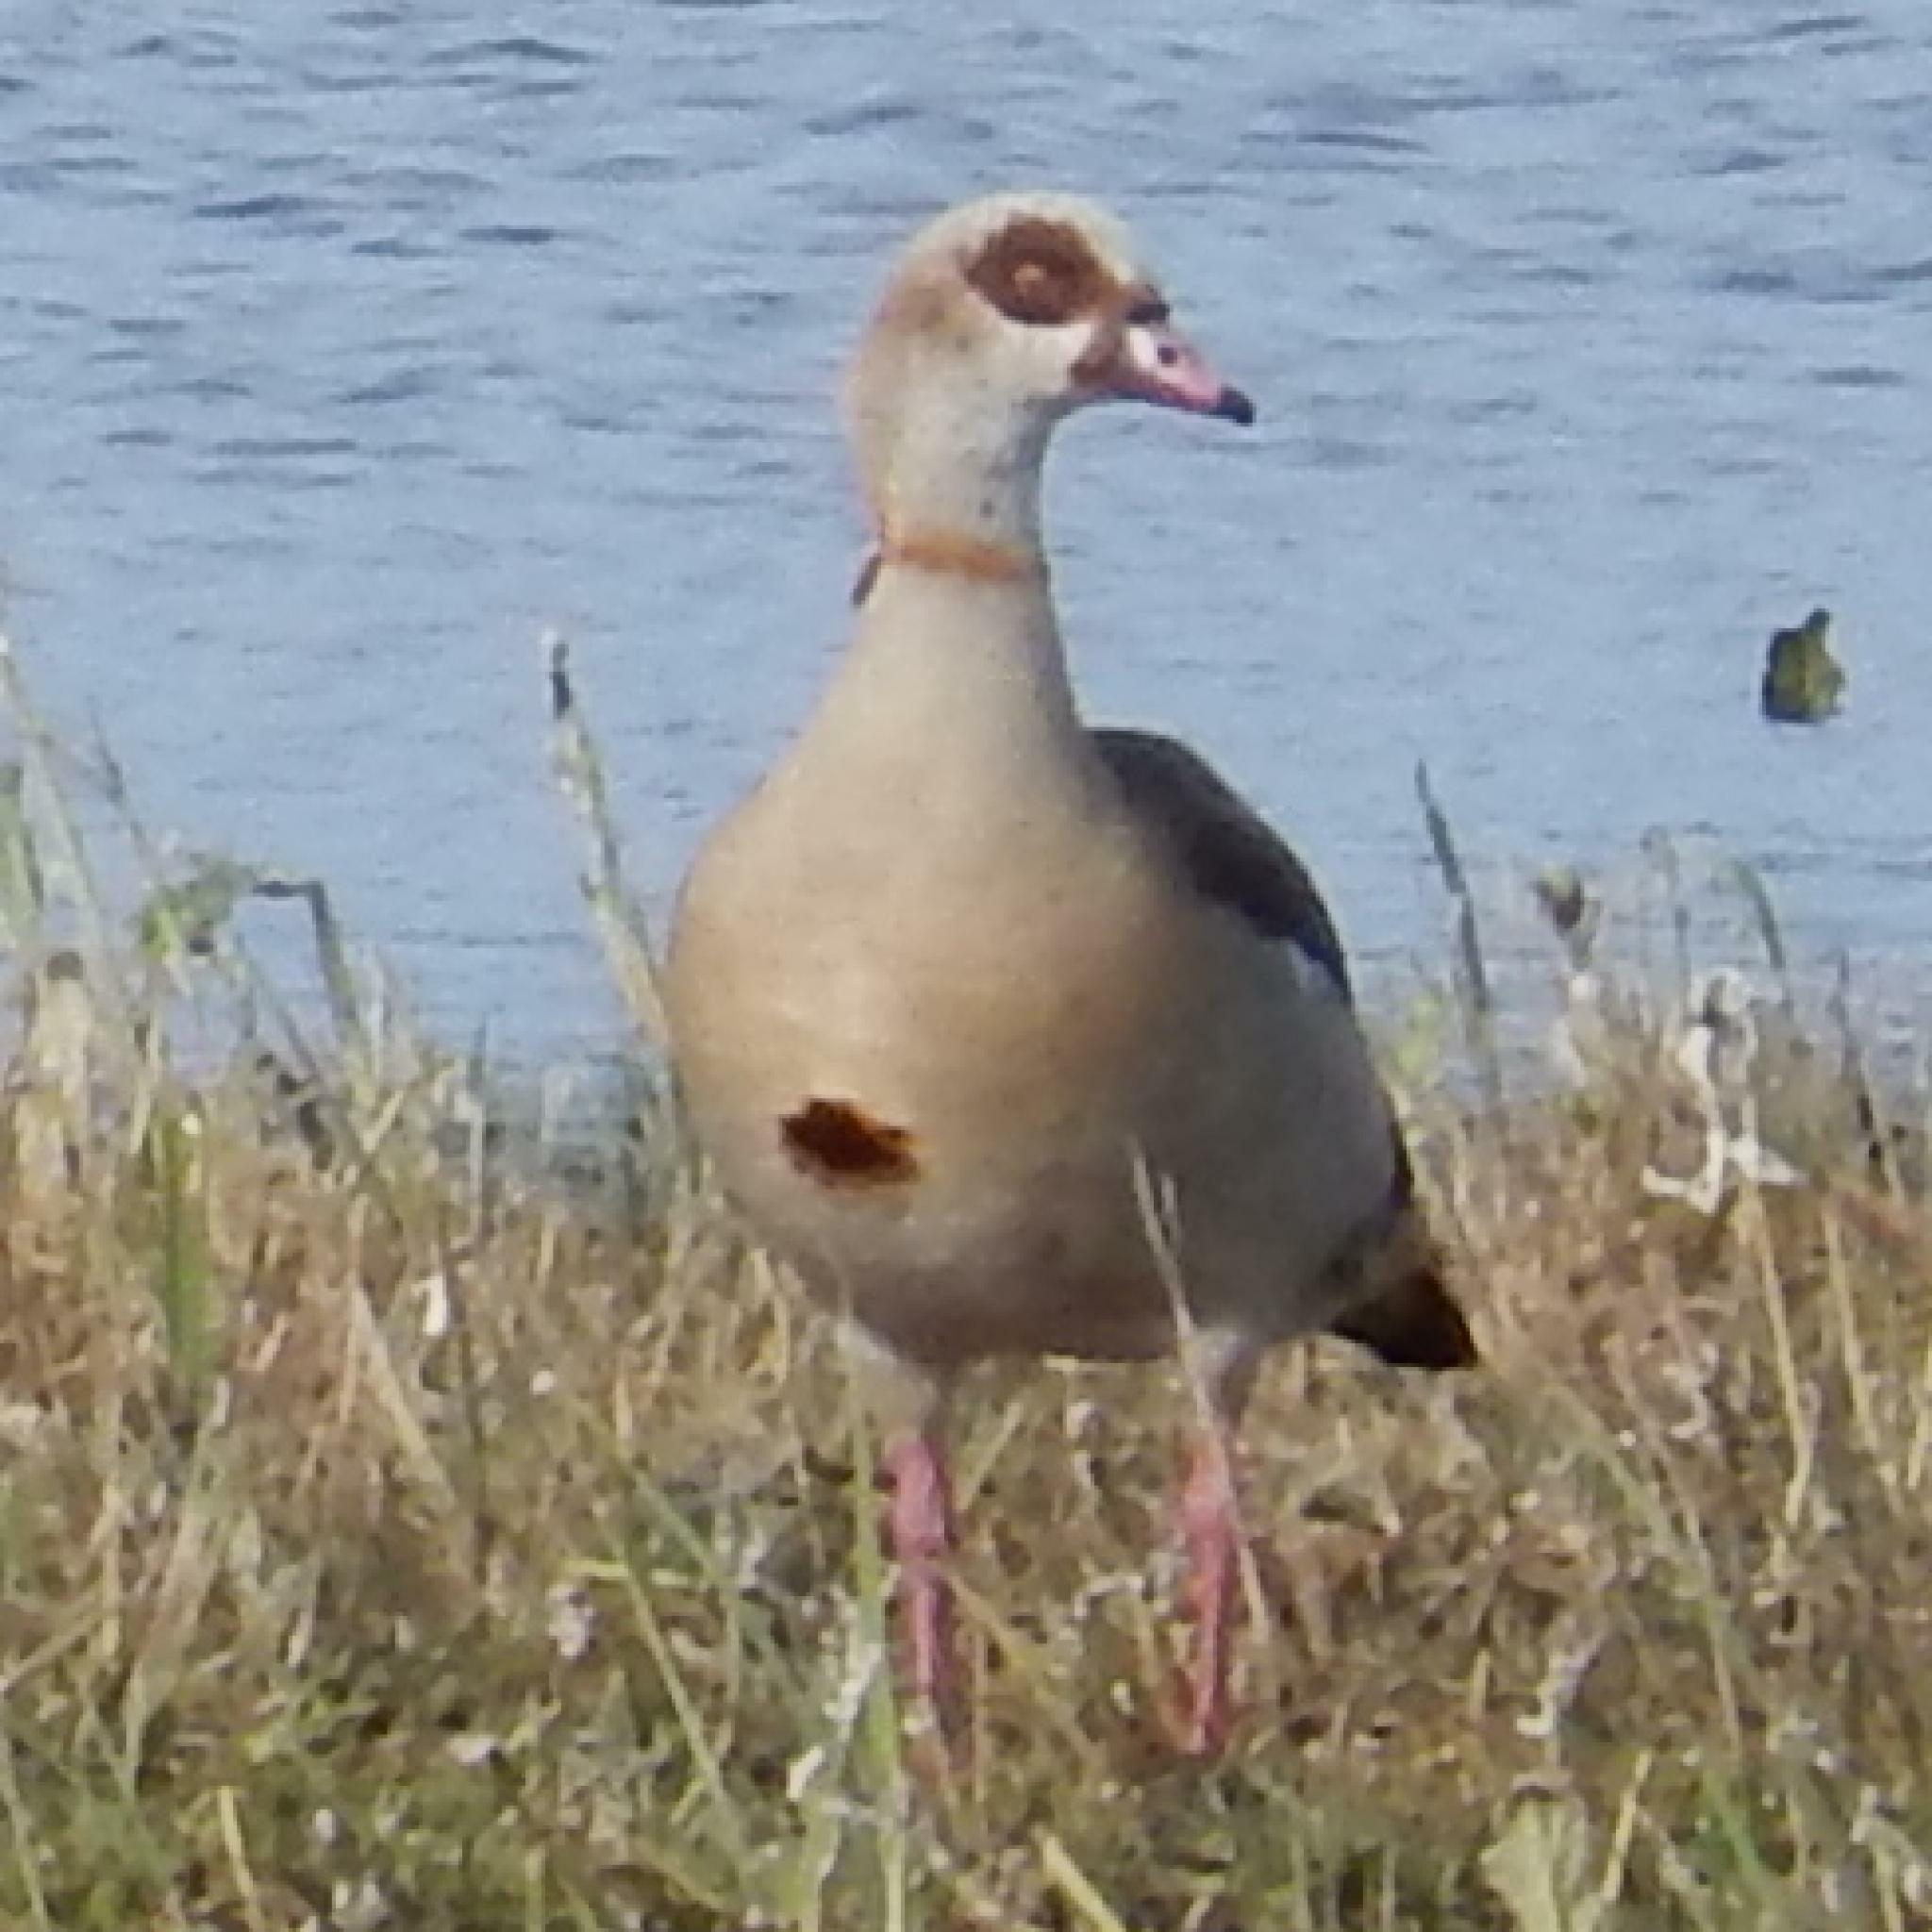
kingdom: Animalia
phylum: Chordata
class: Aves
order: Anseriformes
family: Anatidae
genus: Alopochen
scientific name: Alopochen aegyptiaca
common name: Egyptian goose
